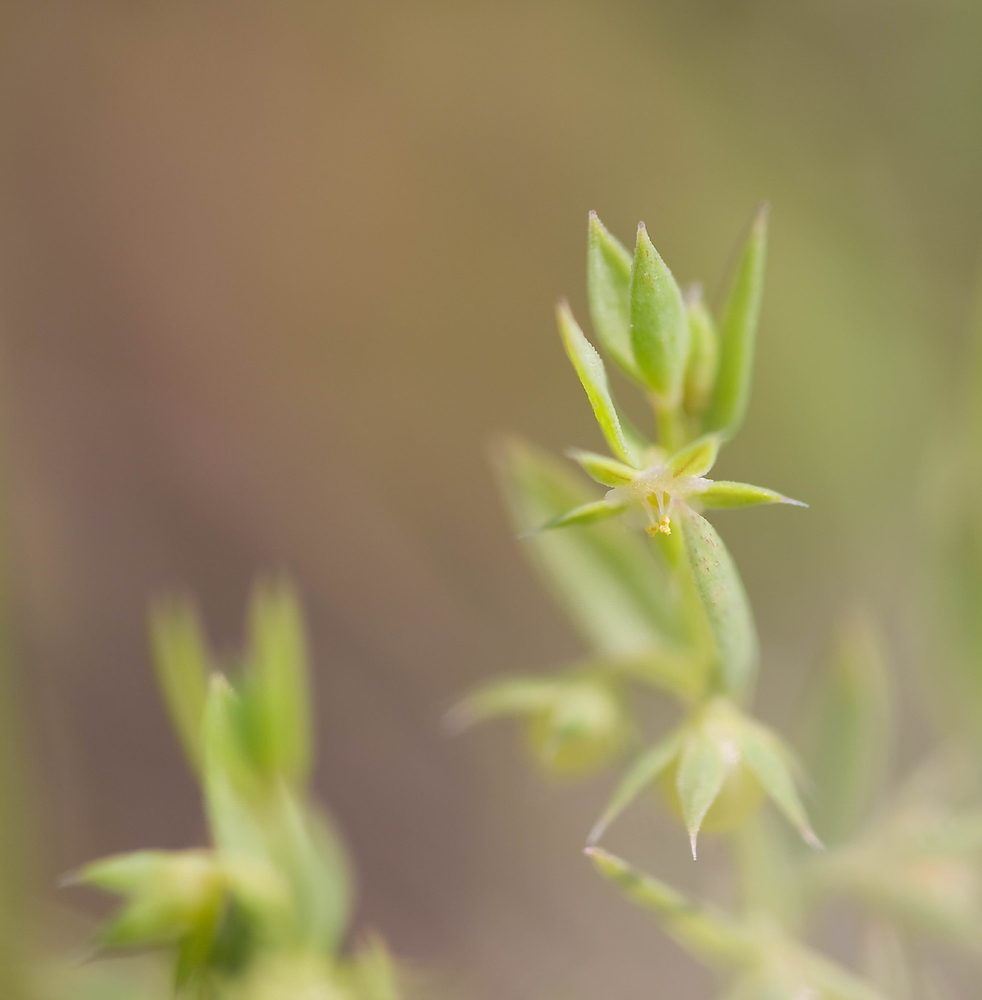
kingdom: Plantae
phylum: Tracheophyta
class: Magnoliopsida
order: Ericales
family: Primulaceae
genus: Lysimachia
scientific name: Lysimachia linum-stellatum
